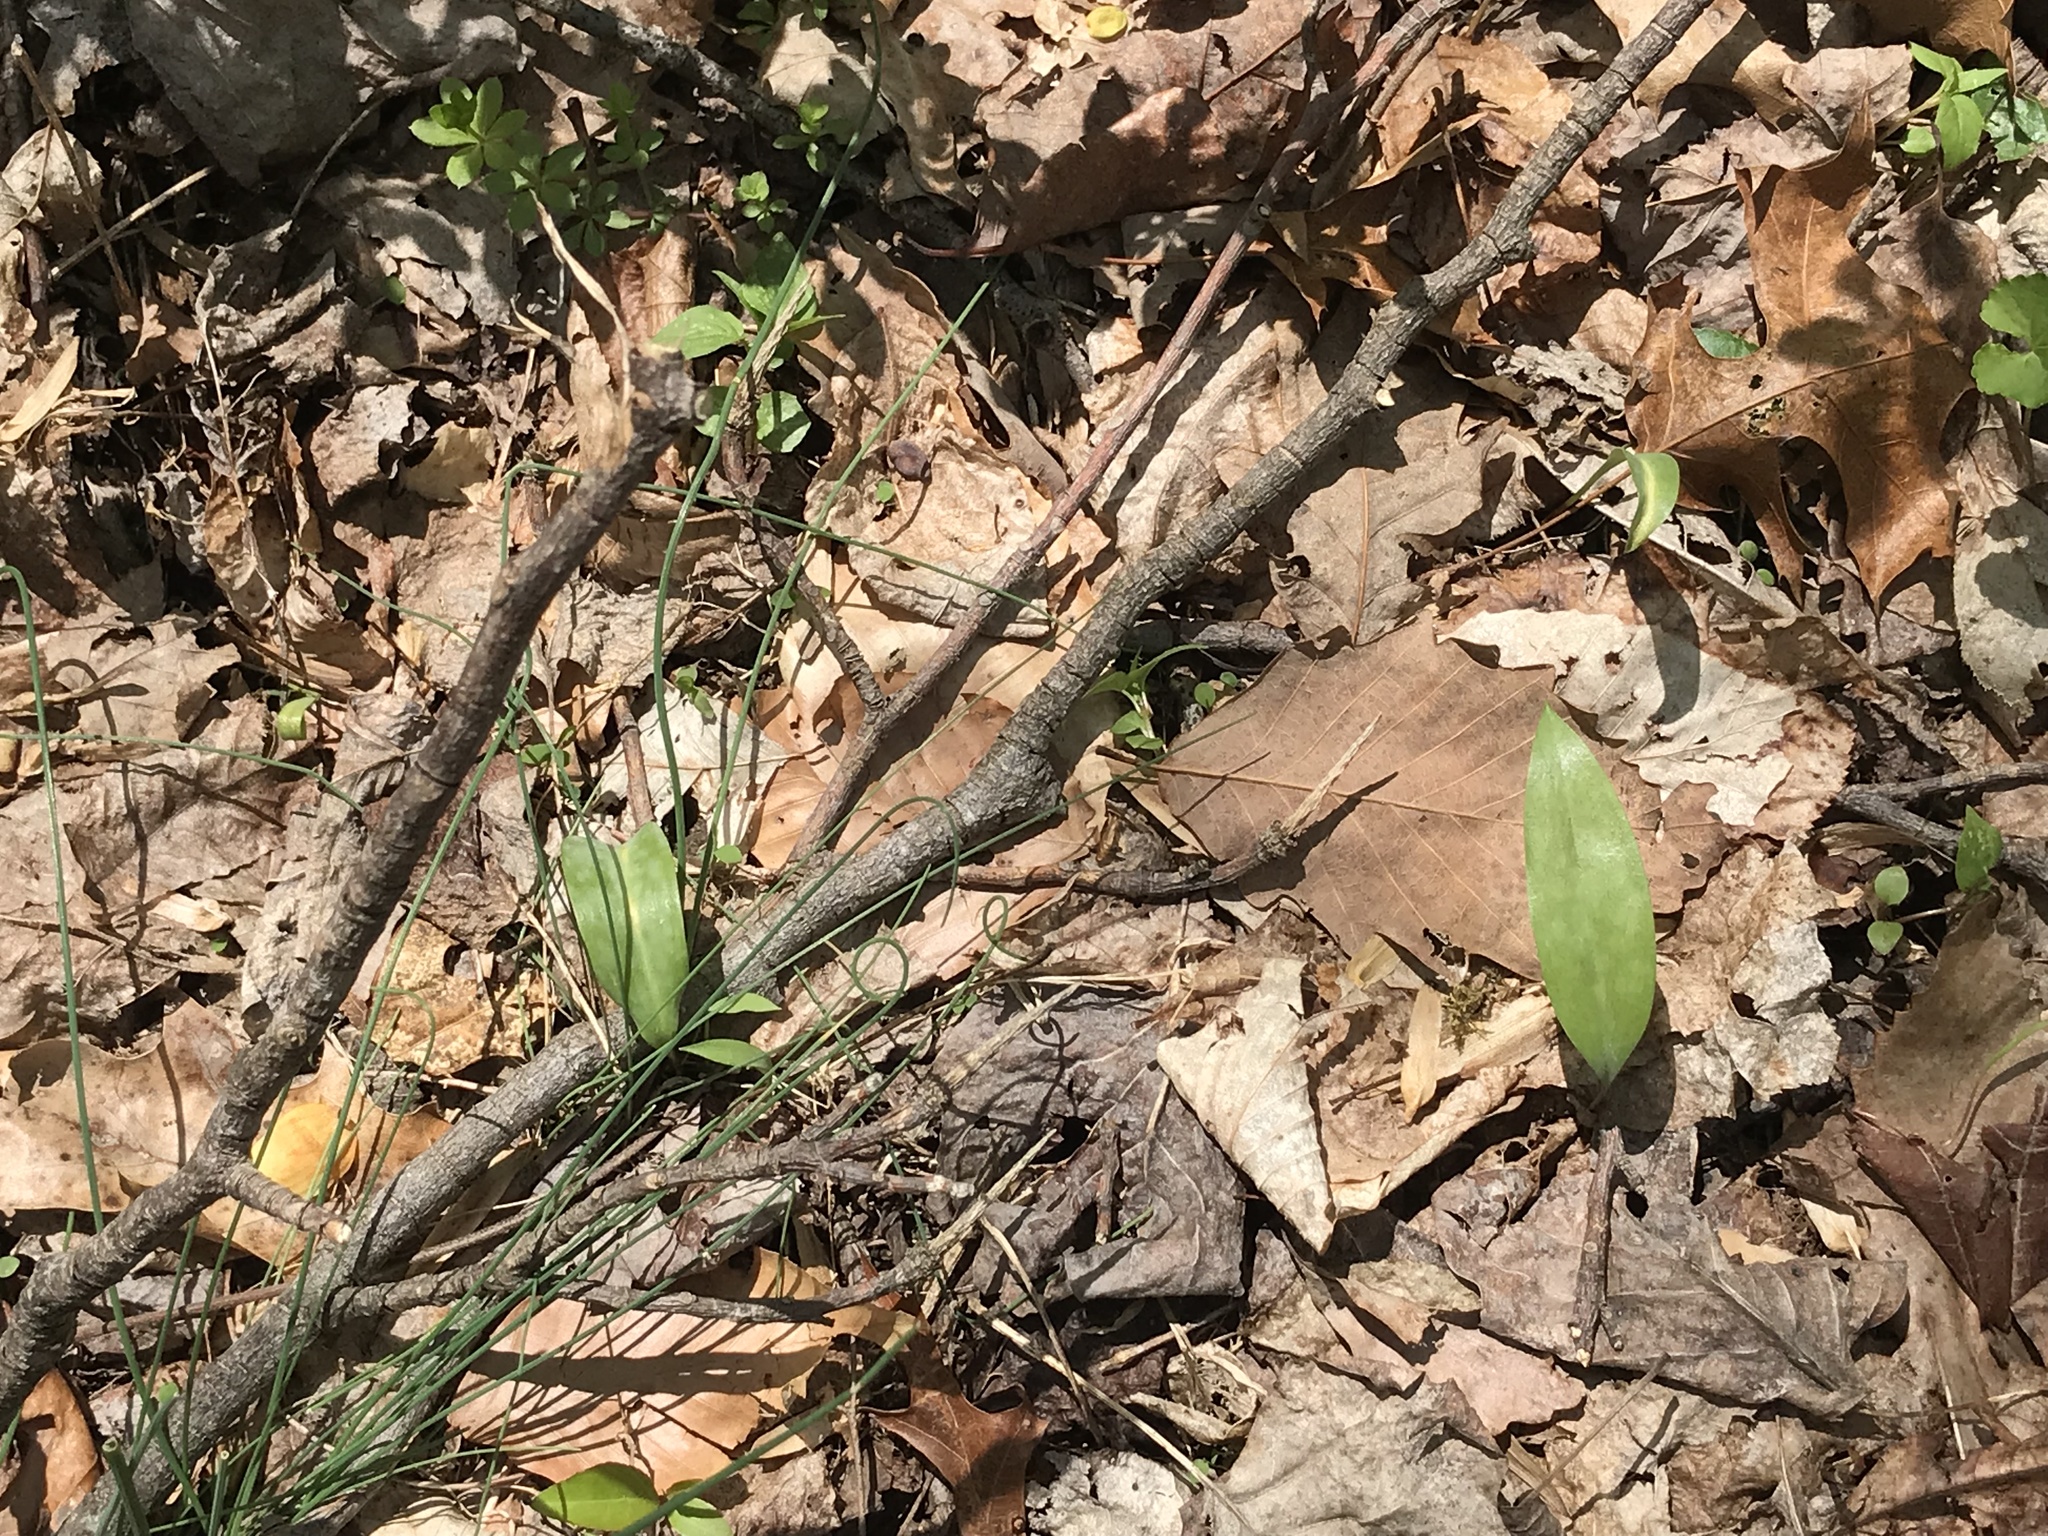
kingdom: Plantae
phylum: Tracheophyta
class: Liliopsida
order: Liliales
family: Liliaceae
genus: Erythronium
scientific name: Erythronium americanum
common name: Yellow adder's-tongue
